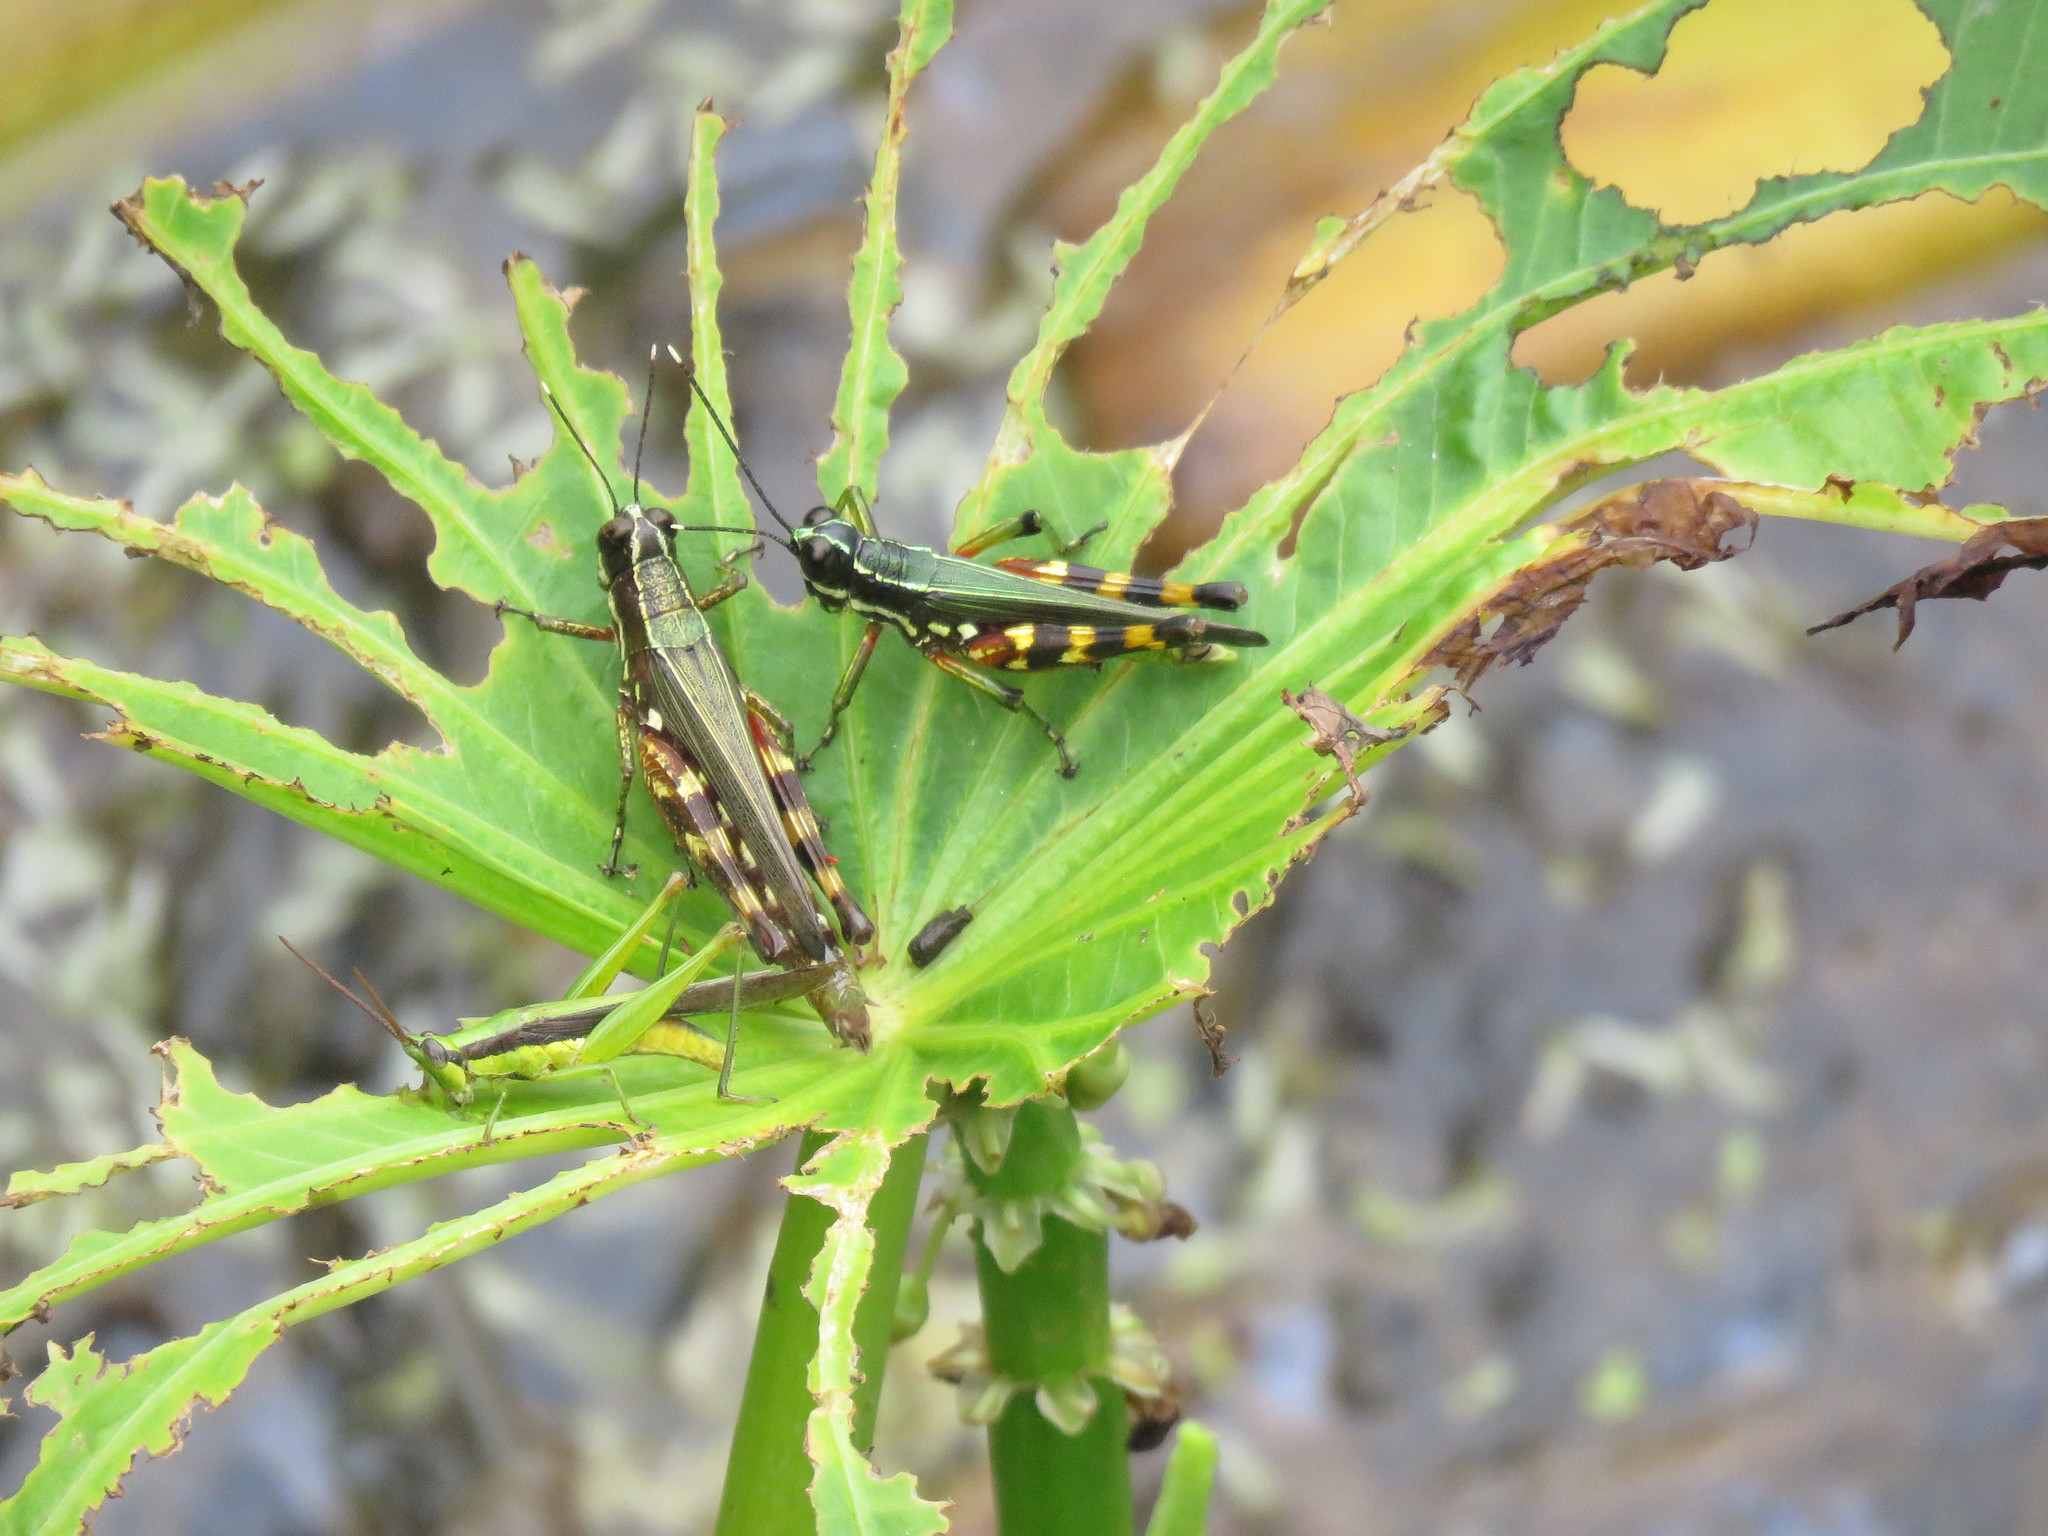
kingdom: Animalia
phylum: Arthropoda
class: Insecta
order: Orthoptera
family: Acrididae
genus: Tetrataenia
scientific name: Tetrataenia surinama
